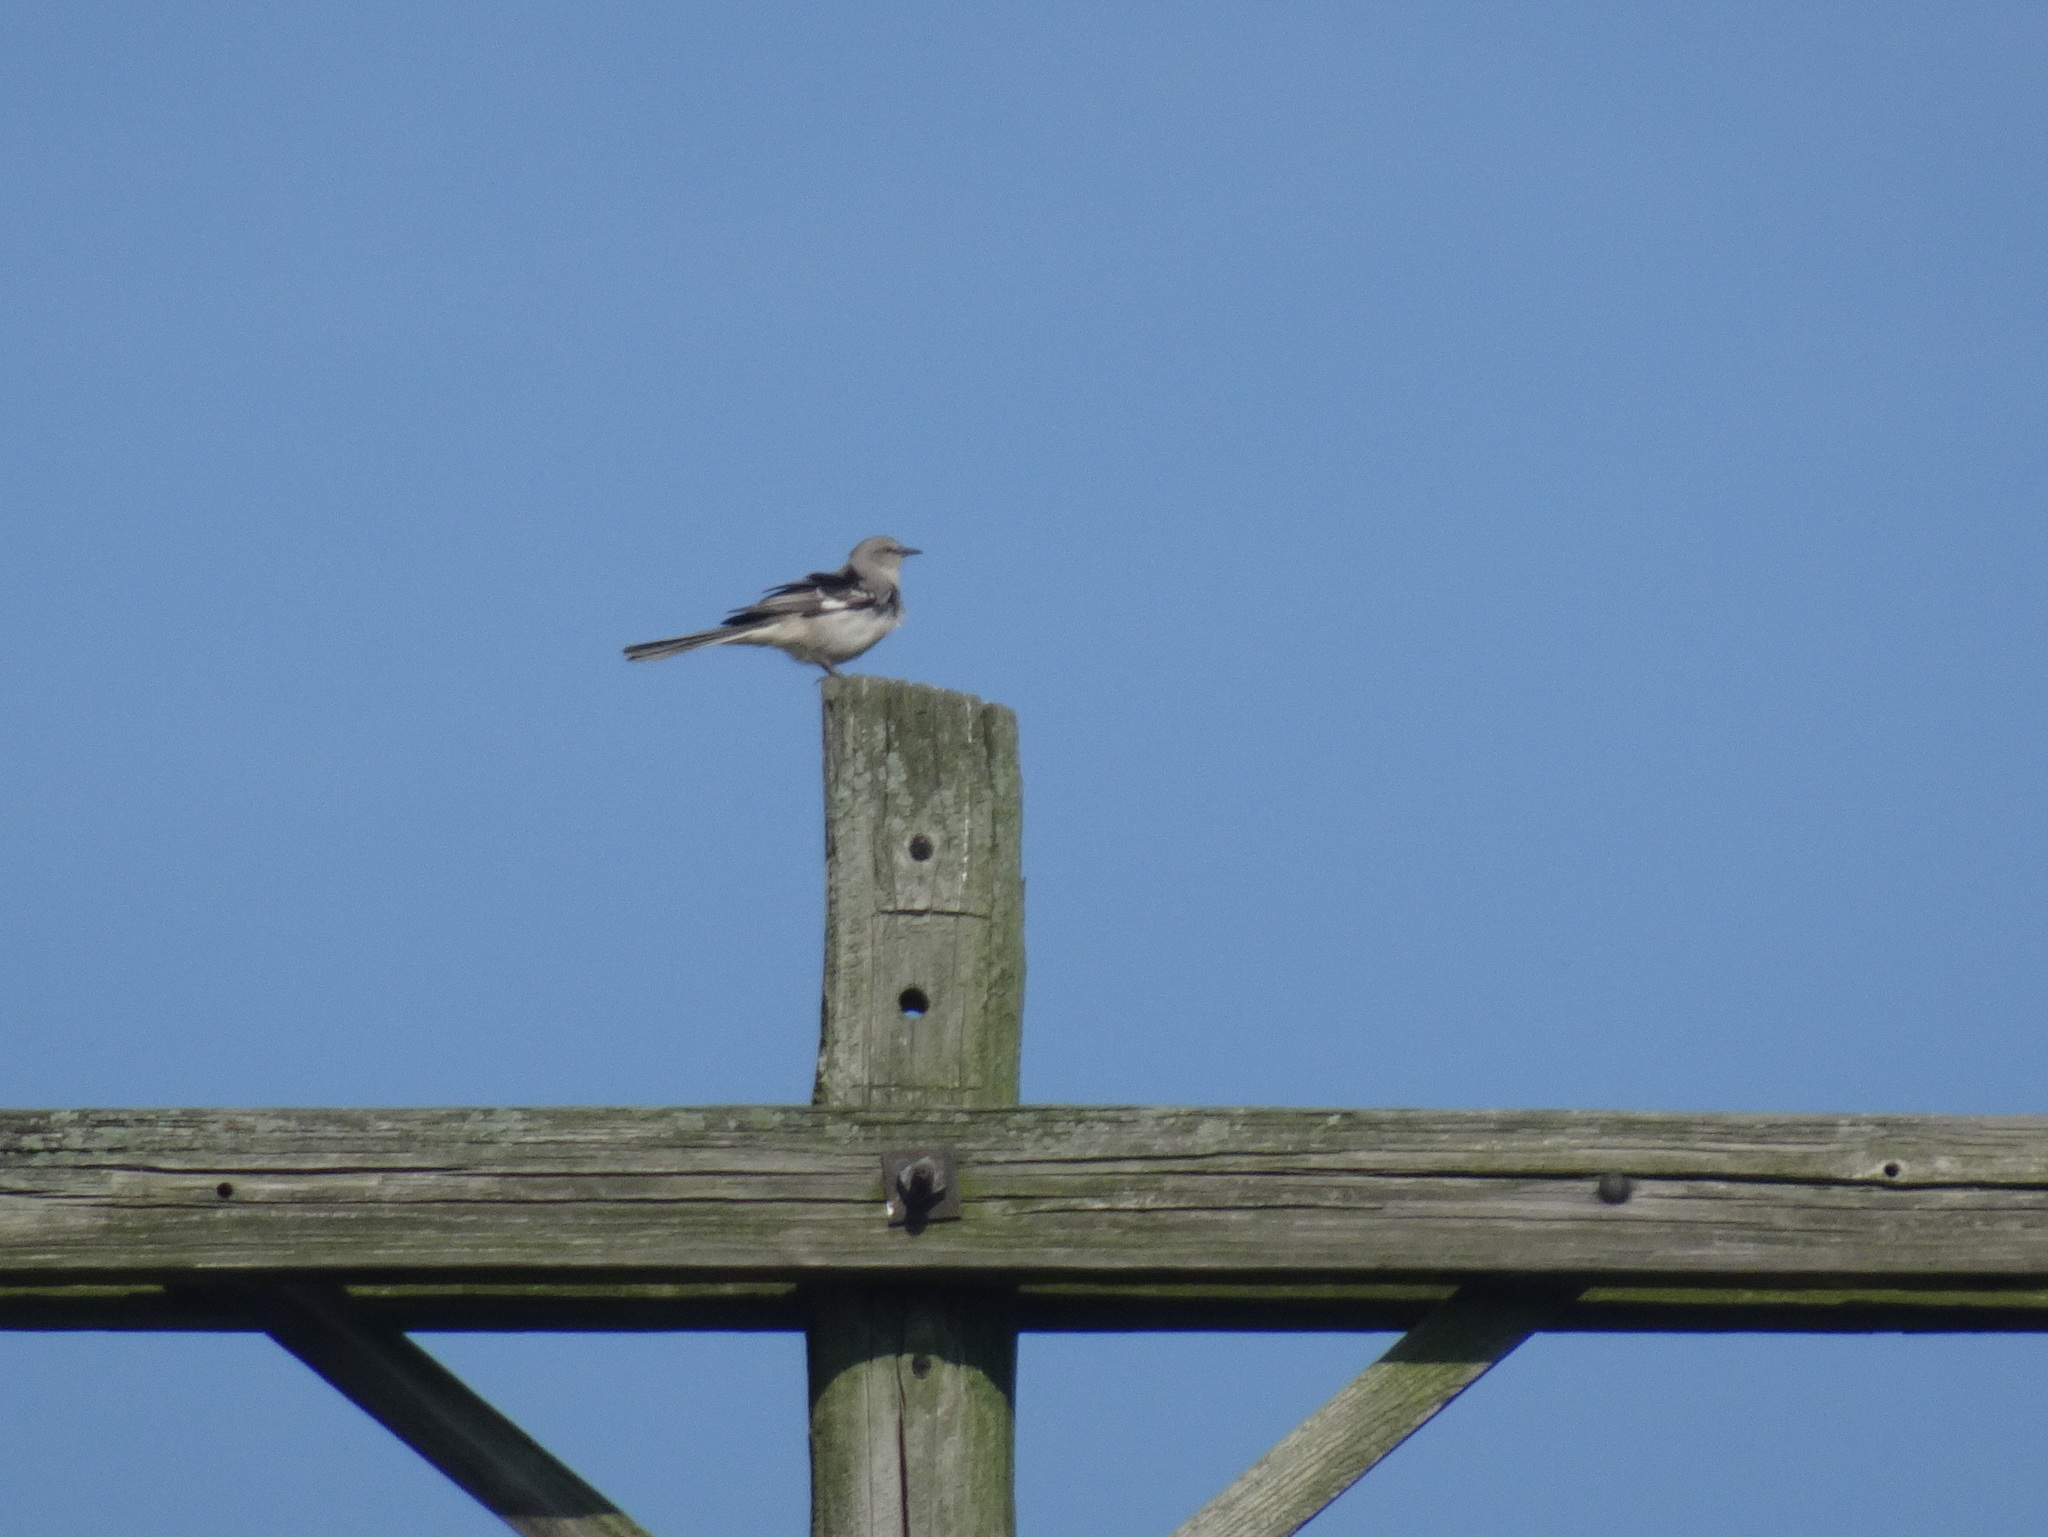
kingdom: Animalia
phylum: Chordata
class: Aves
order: Passeriformes
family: Mimidae
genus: Mimus
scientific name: Mimus polyglottos
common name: Northern mockingbird
